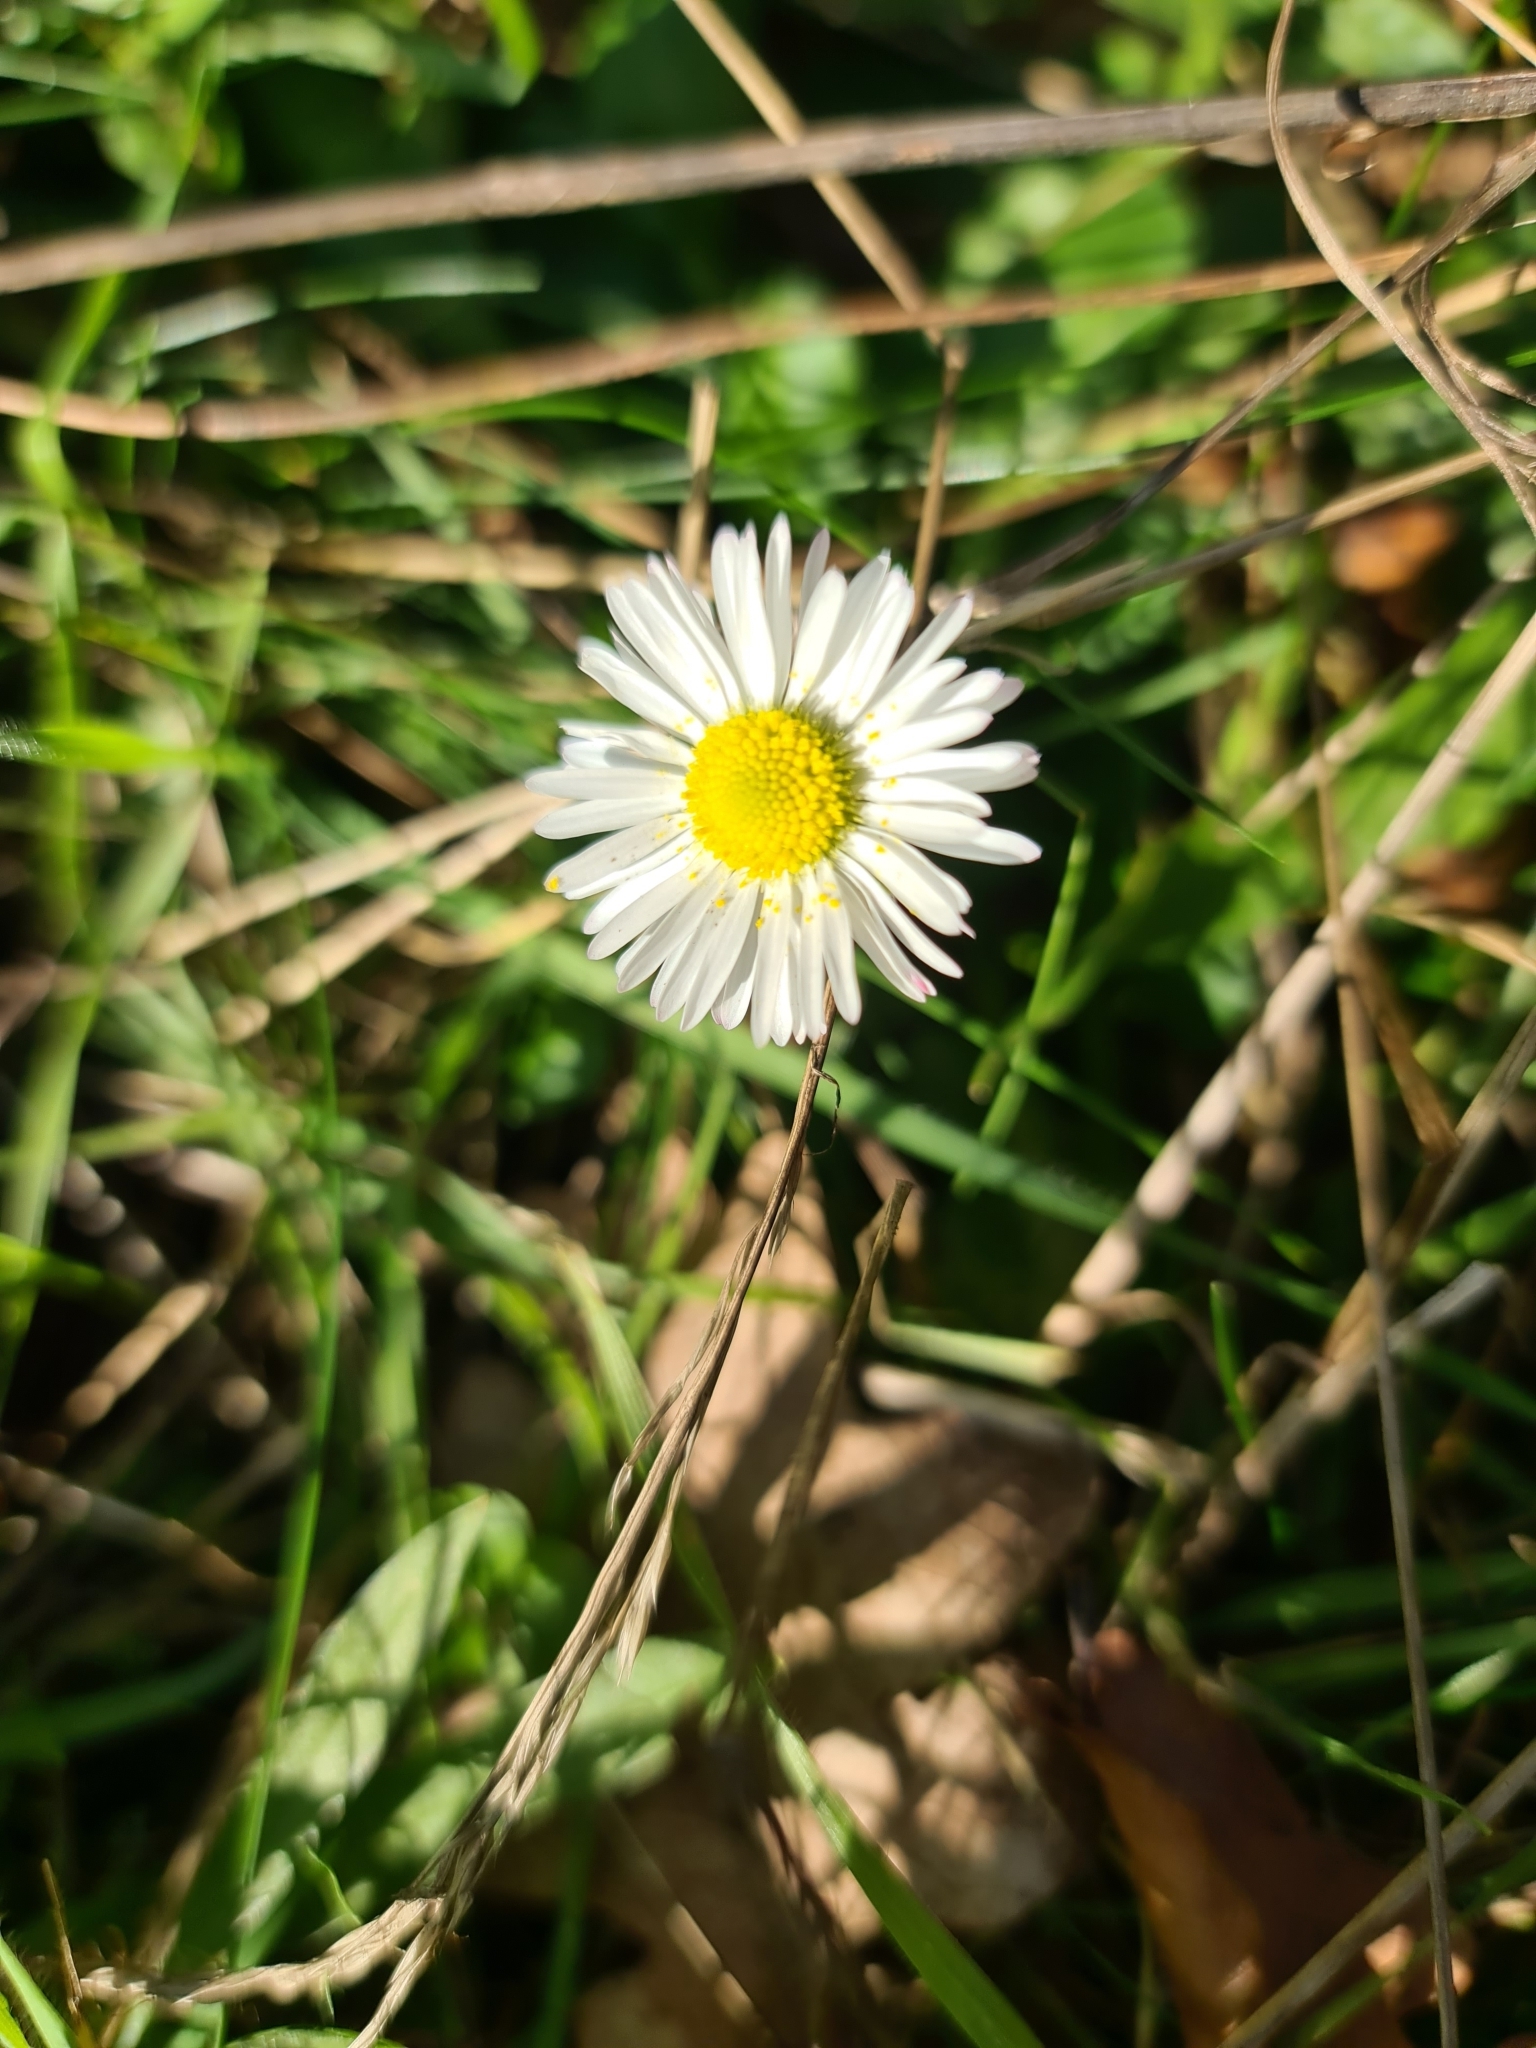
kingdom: Plantae
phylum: Tracheophyta
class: Magnoliopsida
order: Asterales
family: Asteraceae
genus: Bellis
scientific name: Bellis perennis
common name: Lawndaisy
